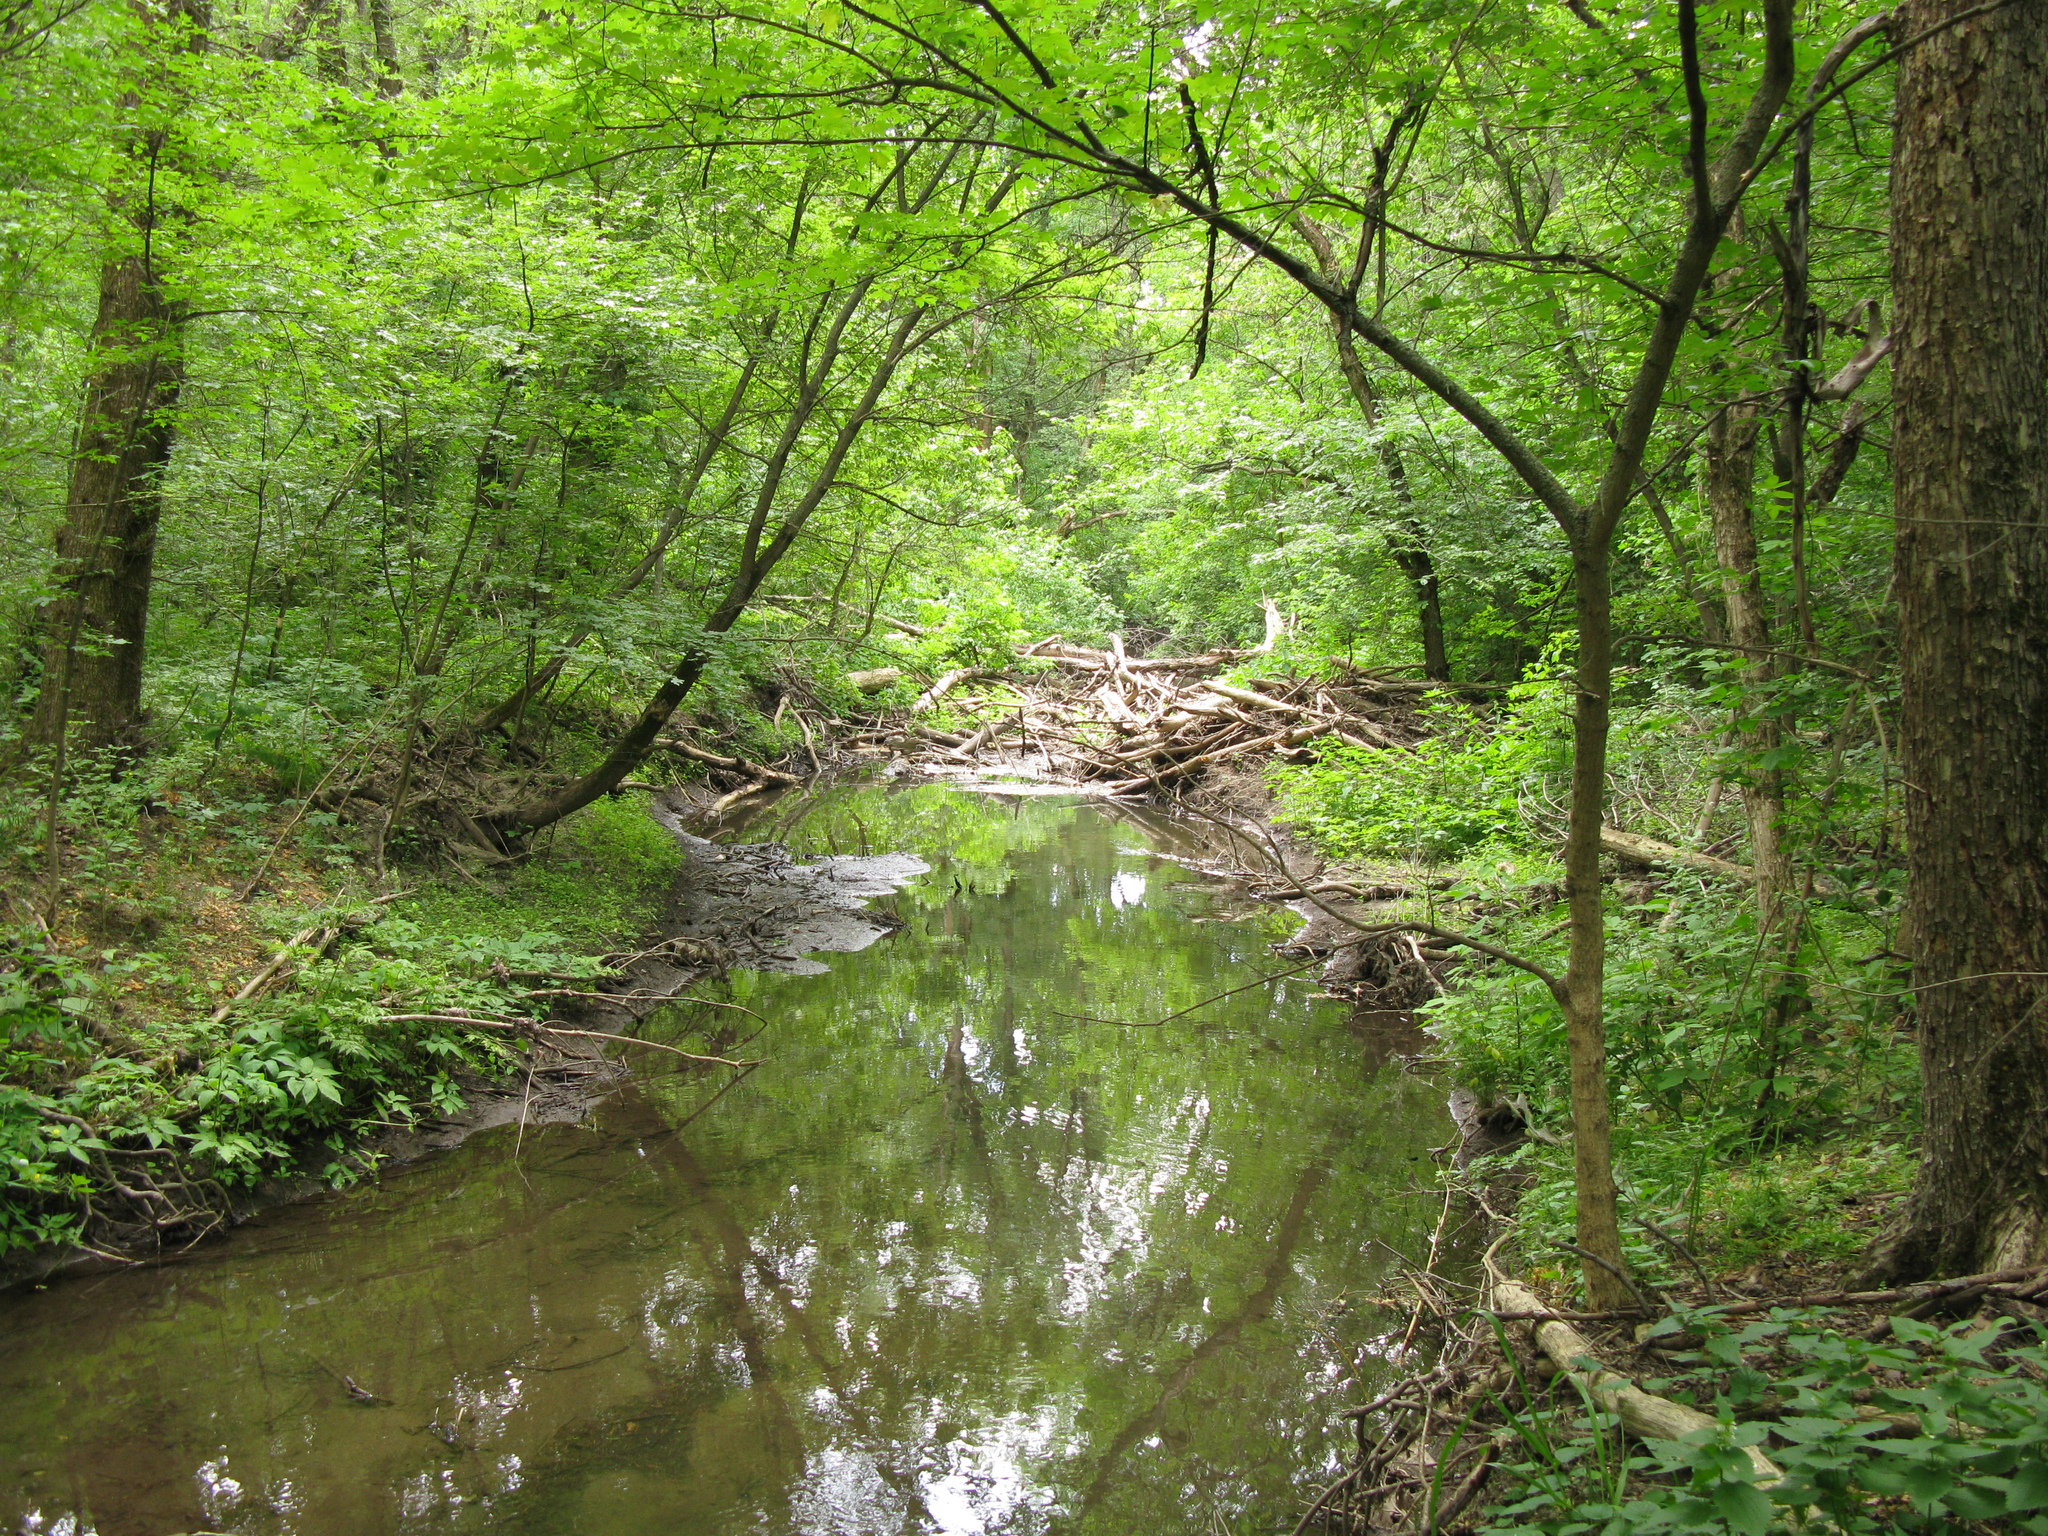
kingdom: Plantae
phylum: Tracheophyta
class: Magnoliopsida
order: Lamiales
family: Lamiaceae
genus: Lamium
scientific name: Lamium album
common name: White dead-nettle
